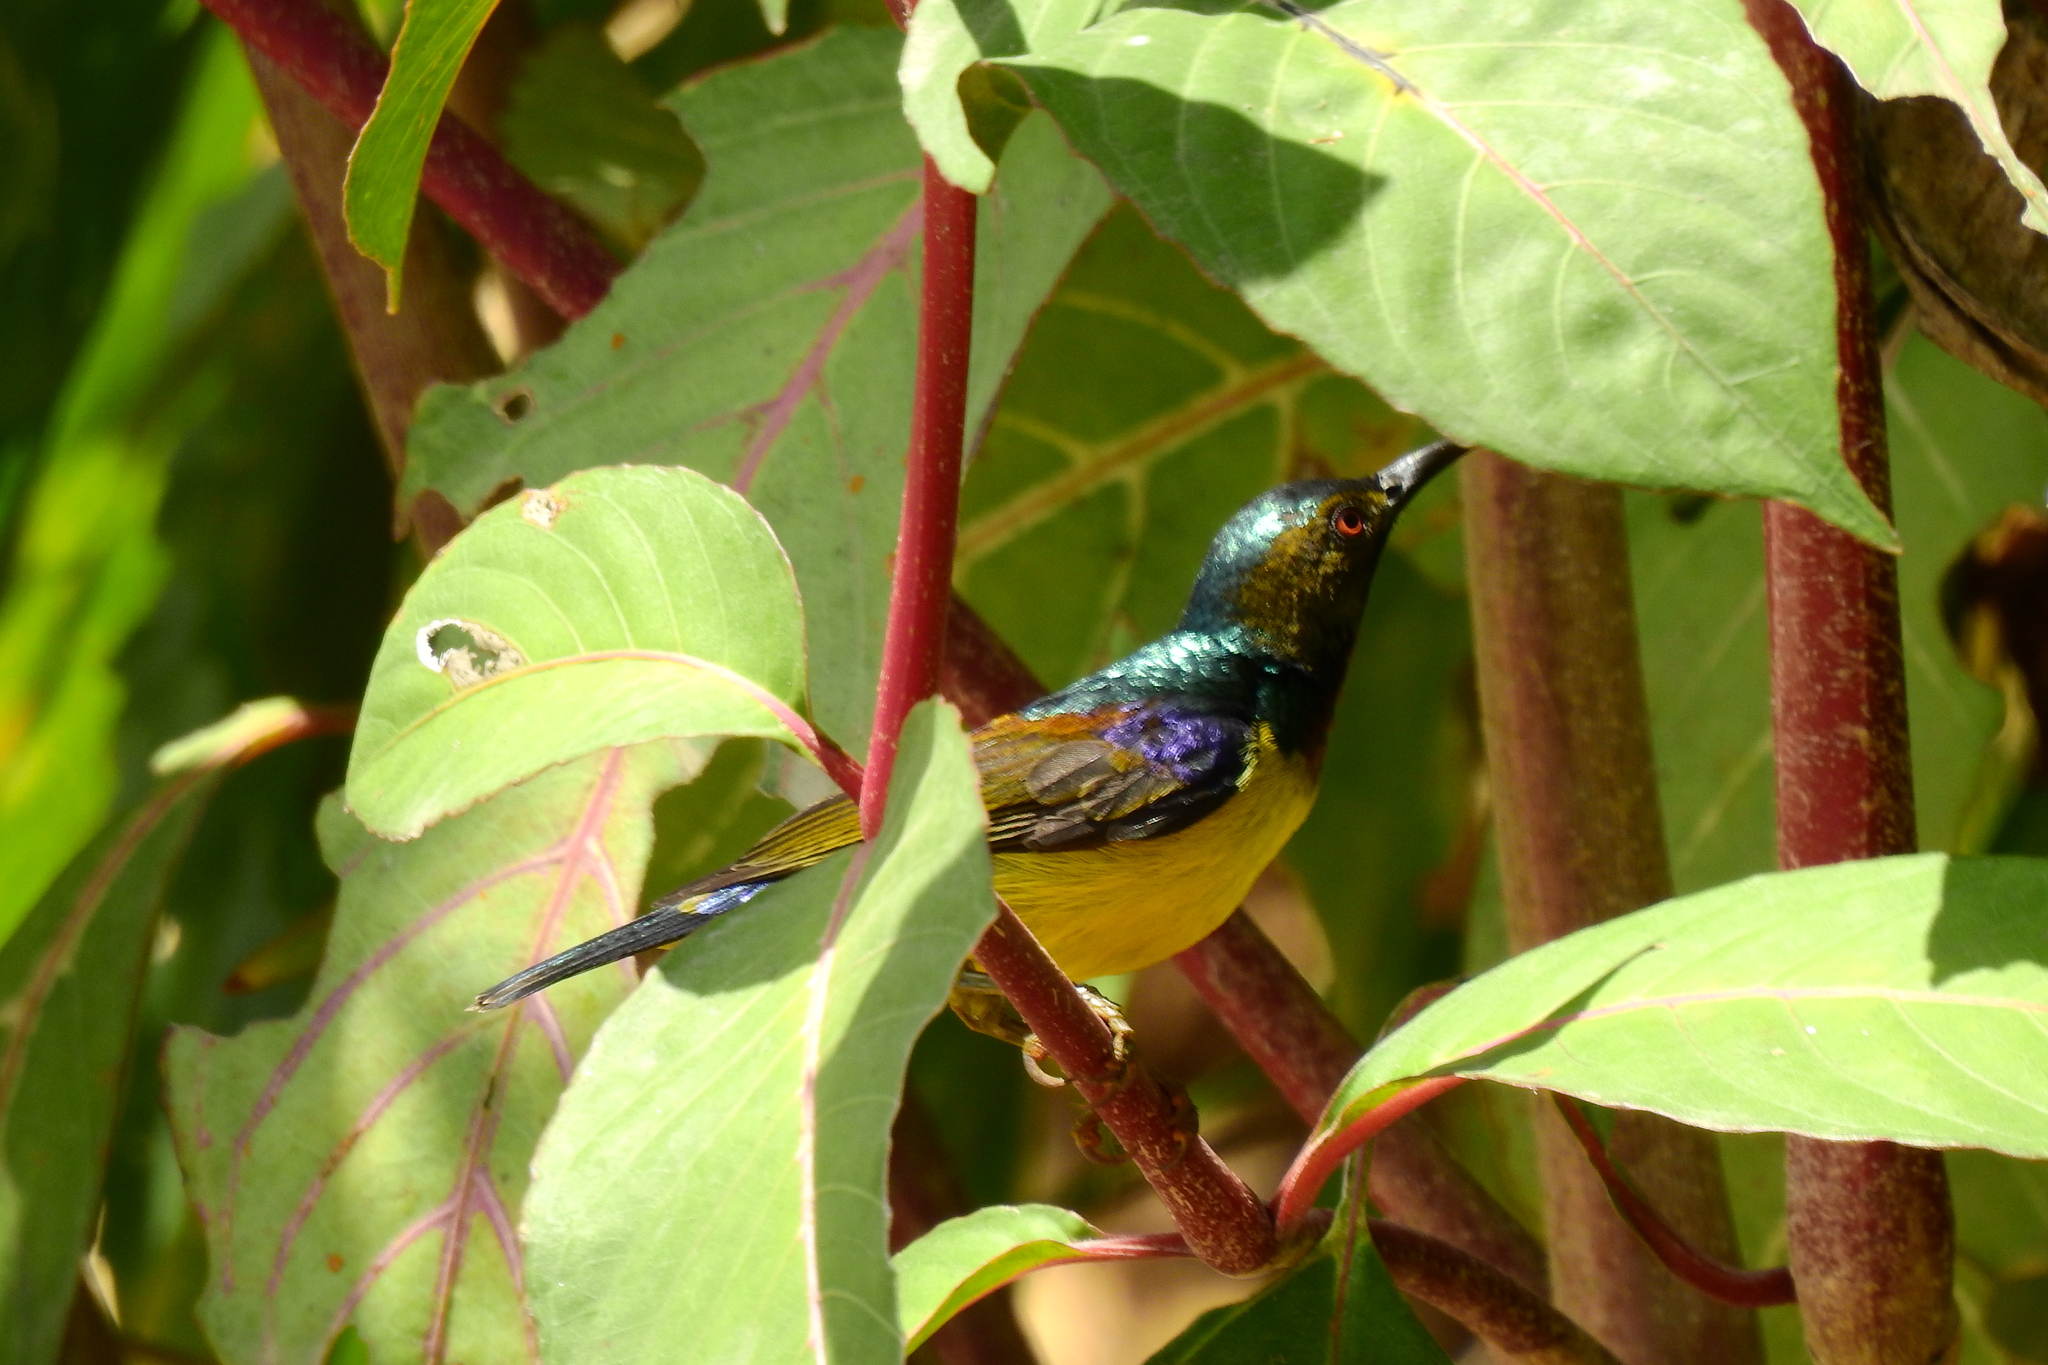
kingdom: Animalia
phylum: Chordata
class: Aves
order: Passeriformes
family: Nectariniidae
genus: Anthreptes
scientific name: Anthreptes malacensis
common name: Brown-throated sunbird
